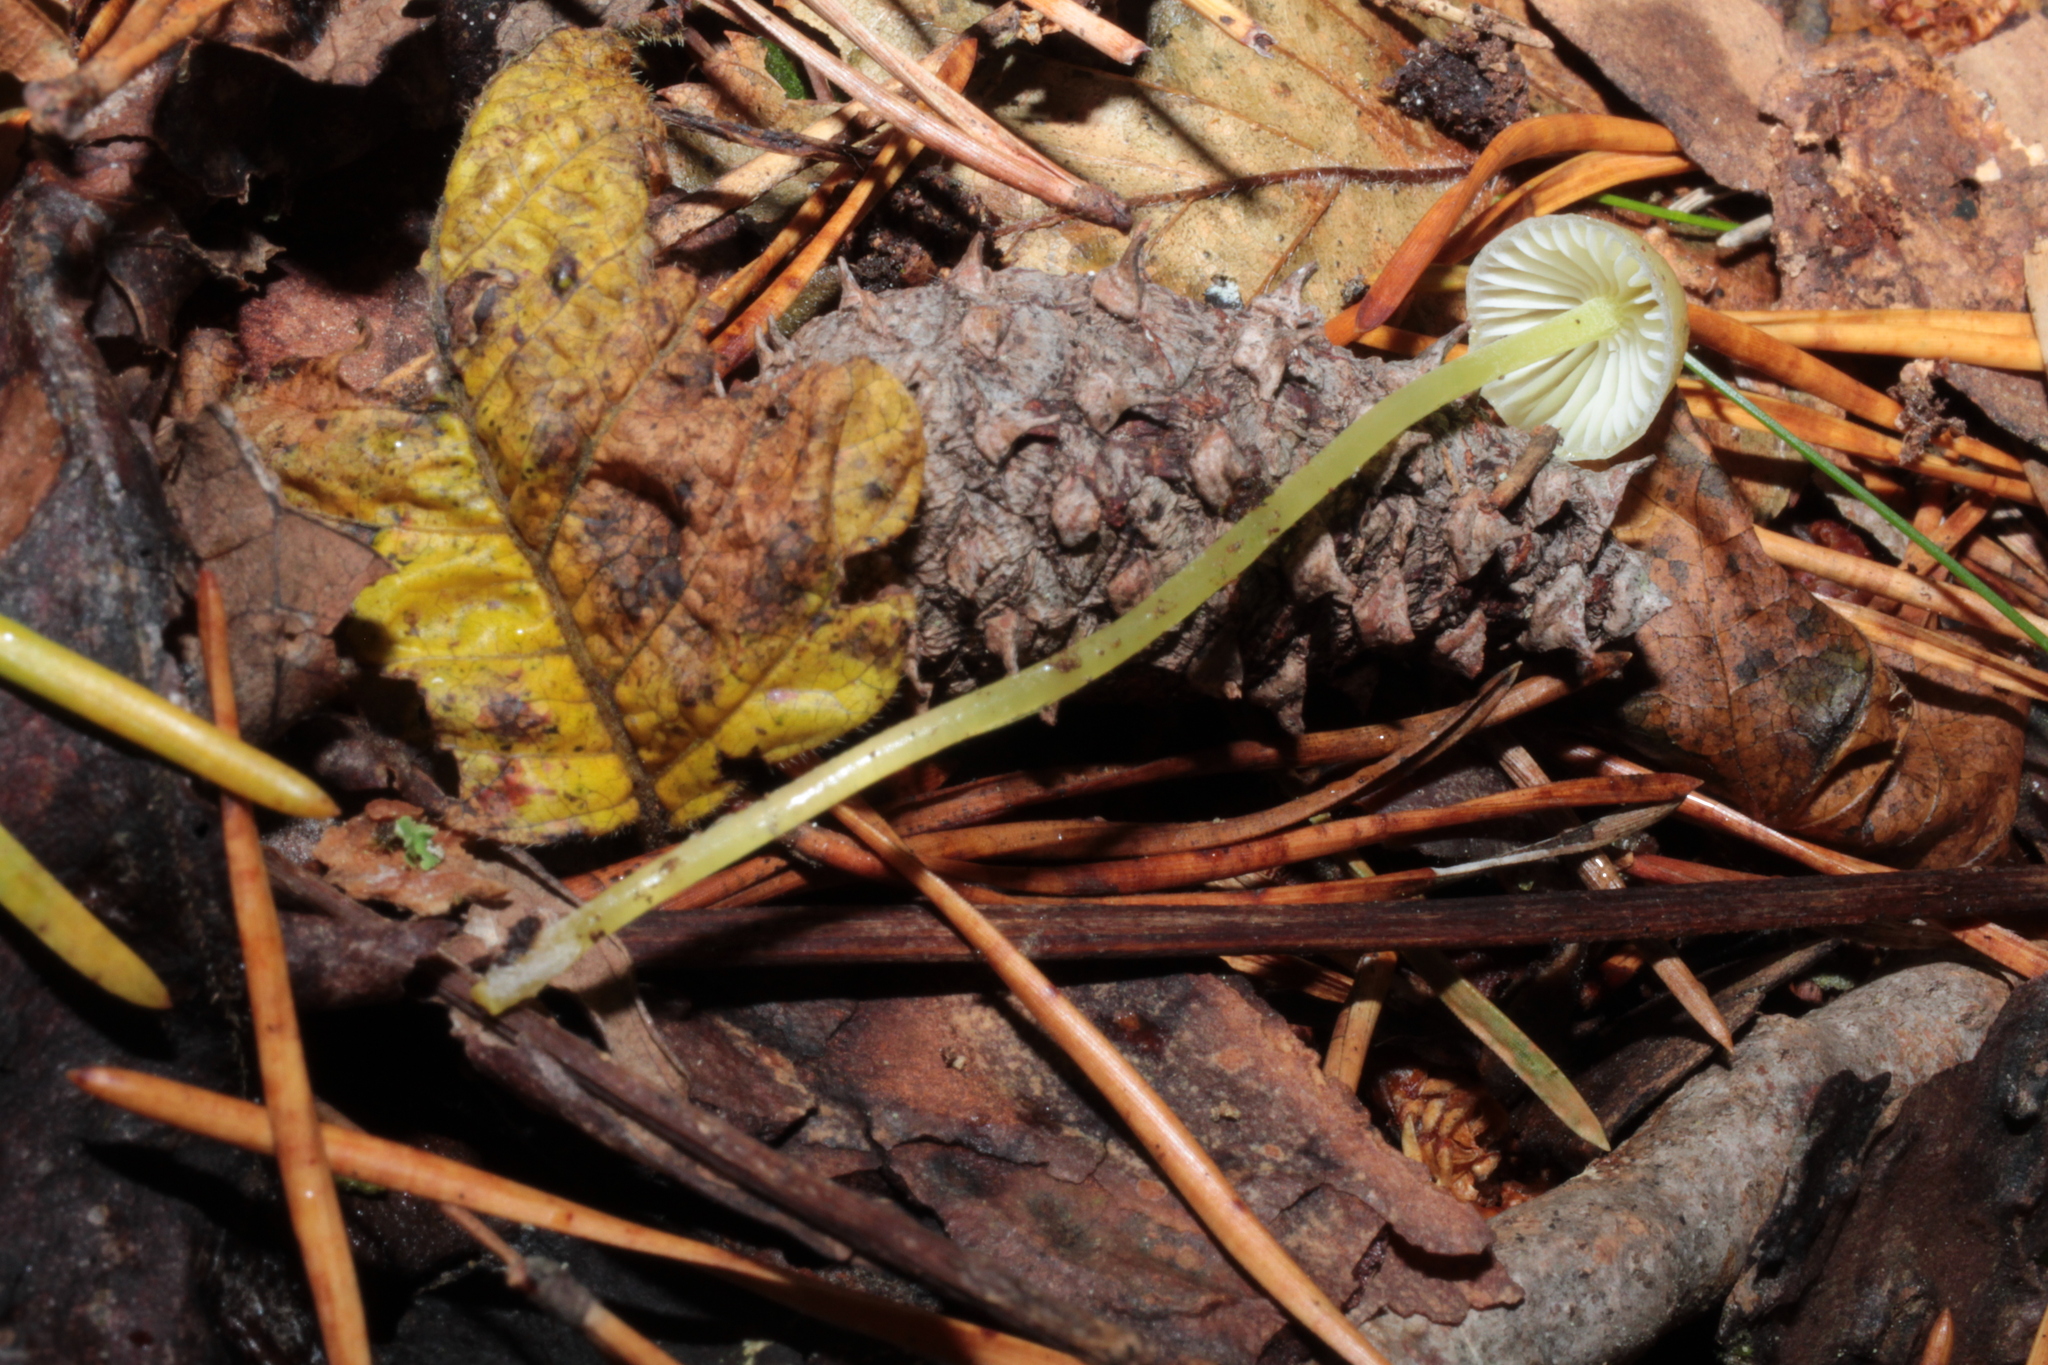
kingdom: Fungi
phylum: Basidiomycota
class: Agaricomycetes
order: Agaricales
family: Mycenaceae
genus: Mycena
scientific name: Mycena epipterygia
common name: Yellowleg bonnet
